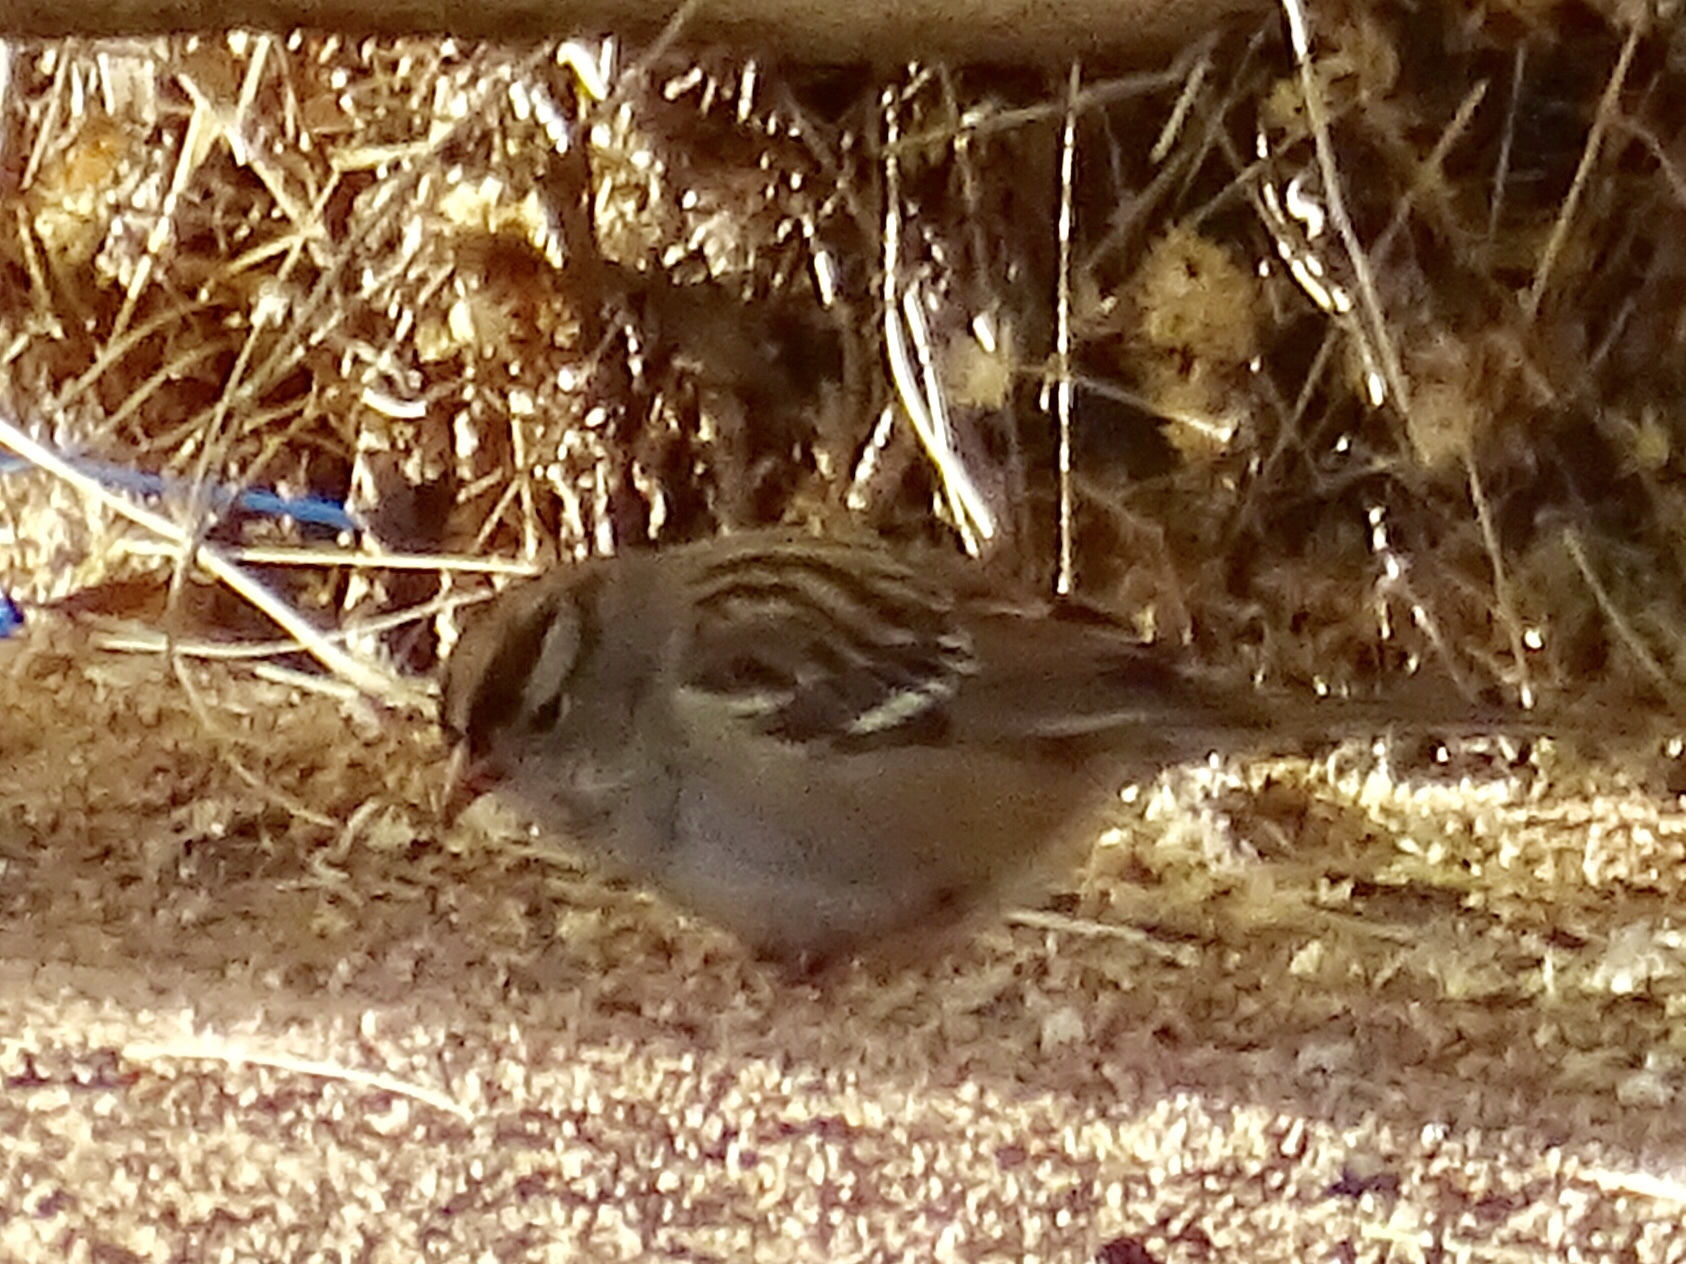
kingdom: Animalia
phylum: Chordata
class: Aves
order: Passeriformes
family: Passerellidae
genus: Zonotrichia
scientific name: Zonotrichia leucophrys
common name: White-crowned sparrow
